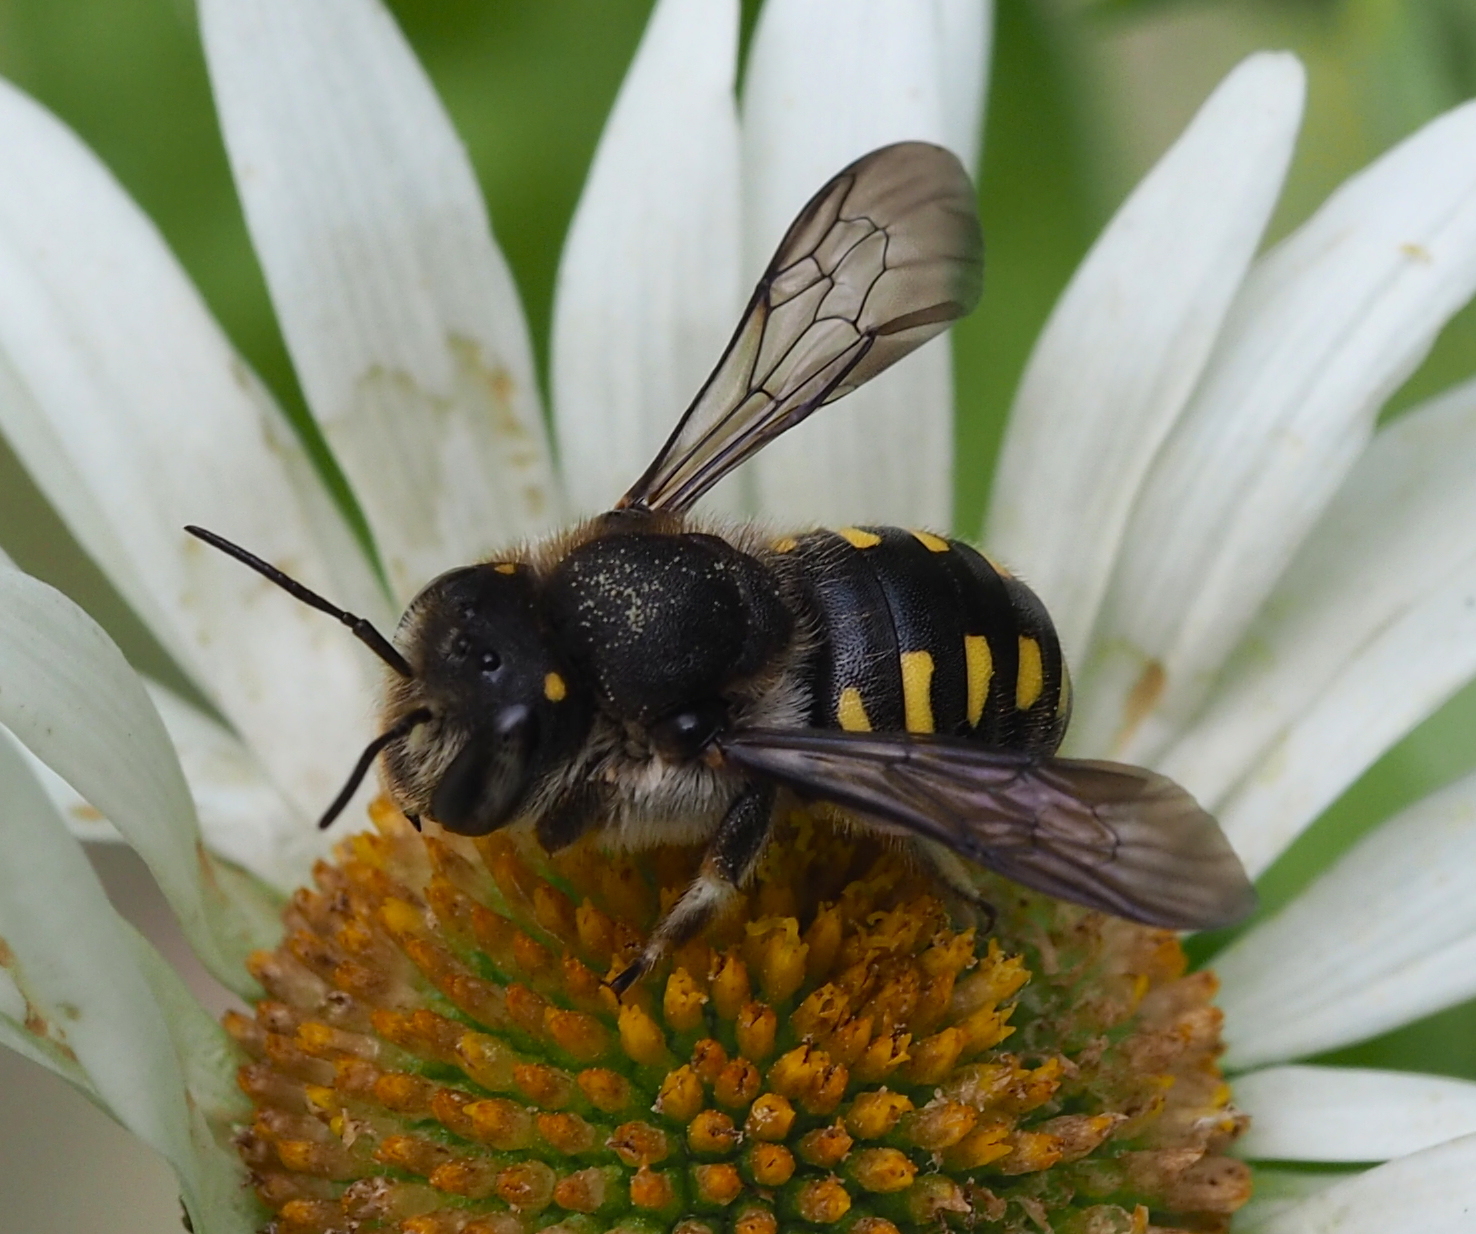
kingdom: Animalia
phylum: Arthropoda
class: Insecta
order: Hymenoptera
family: Megachilidae
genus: Anthidium
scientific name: Anthidium septemspinosum
